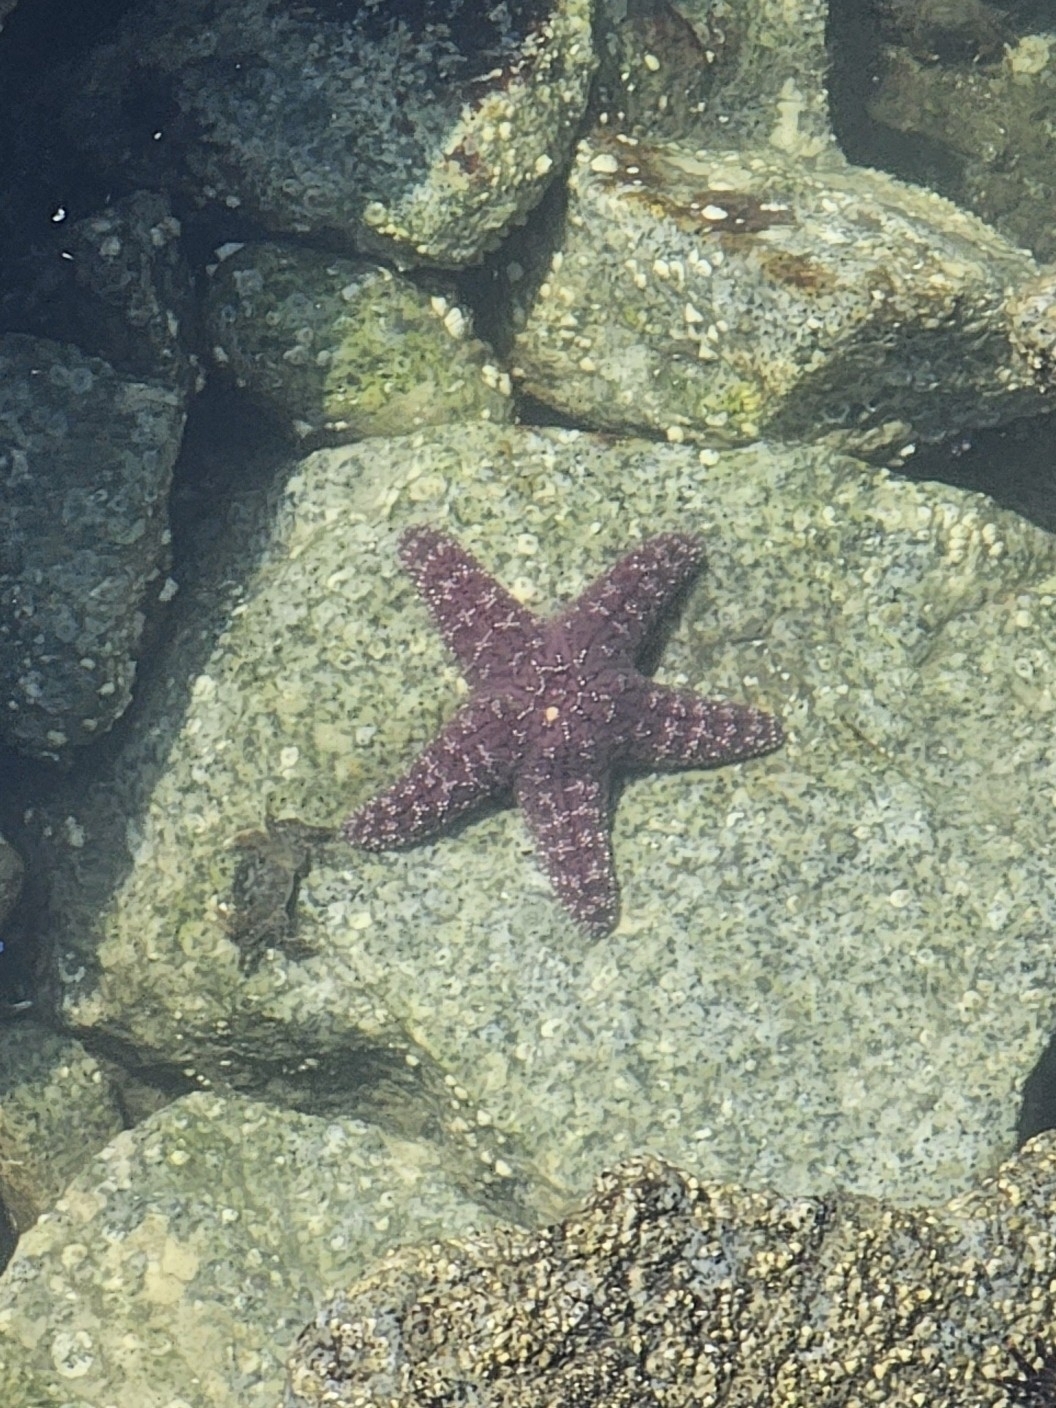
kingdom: Animalia
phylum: Echinodermata
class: Asteroidea
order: Forcipulatida
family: Asteriidae
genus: Pisaster
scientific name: Pisaster ochraceus
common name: Ochre stars
